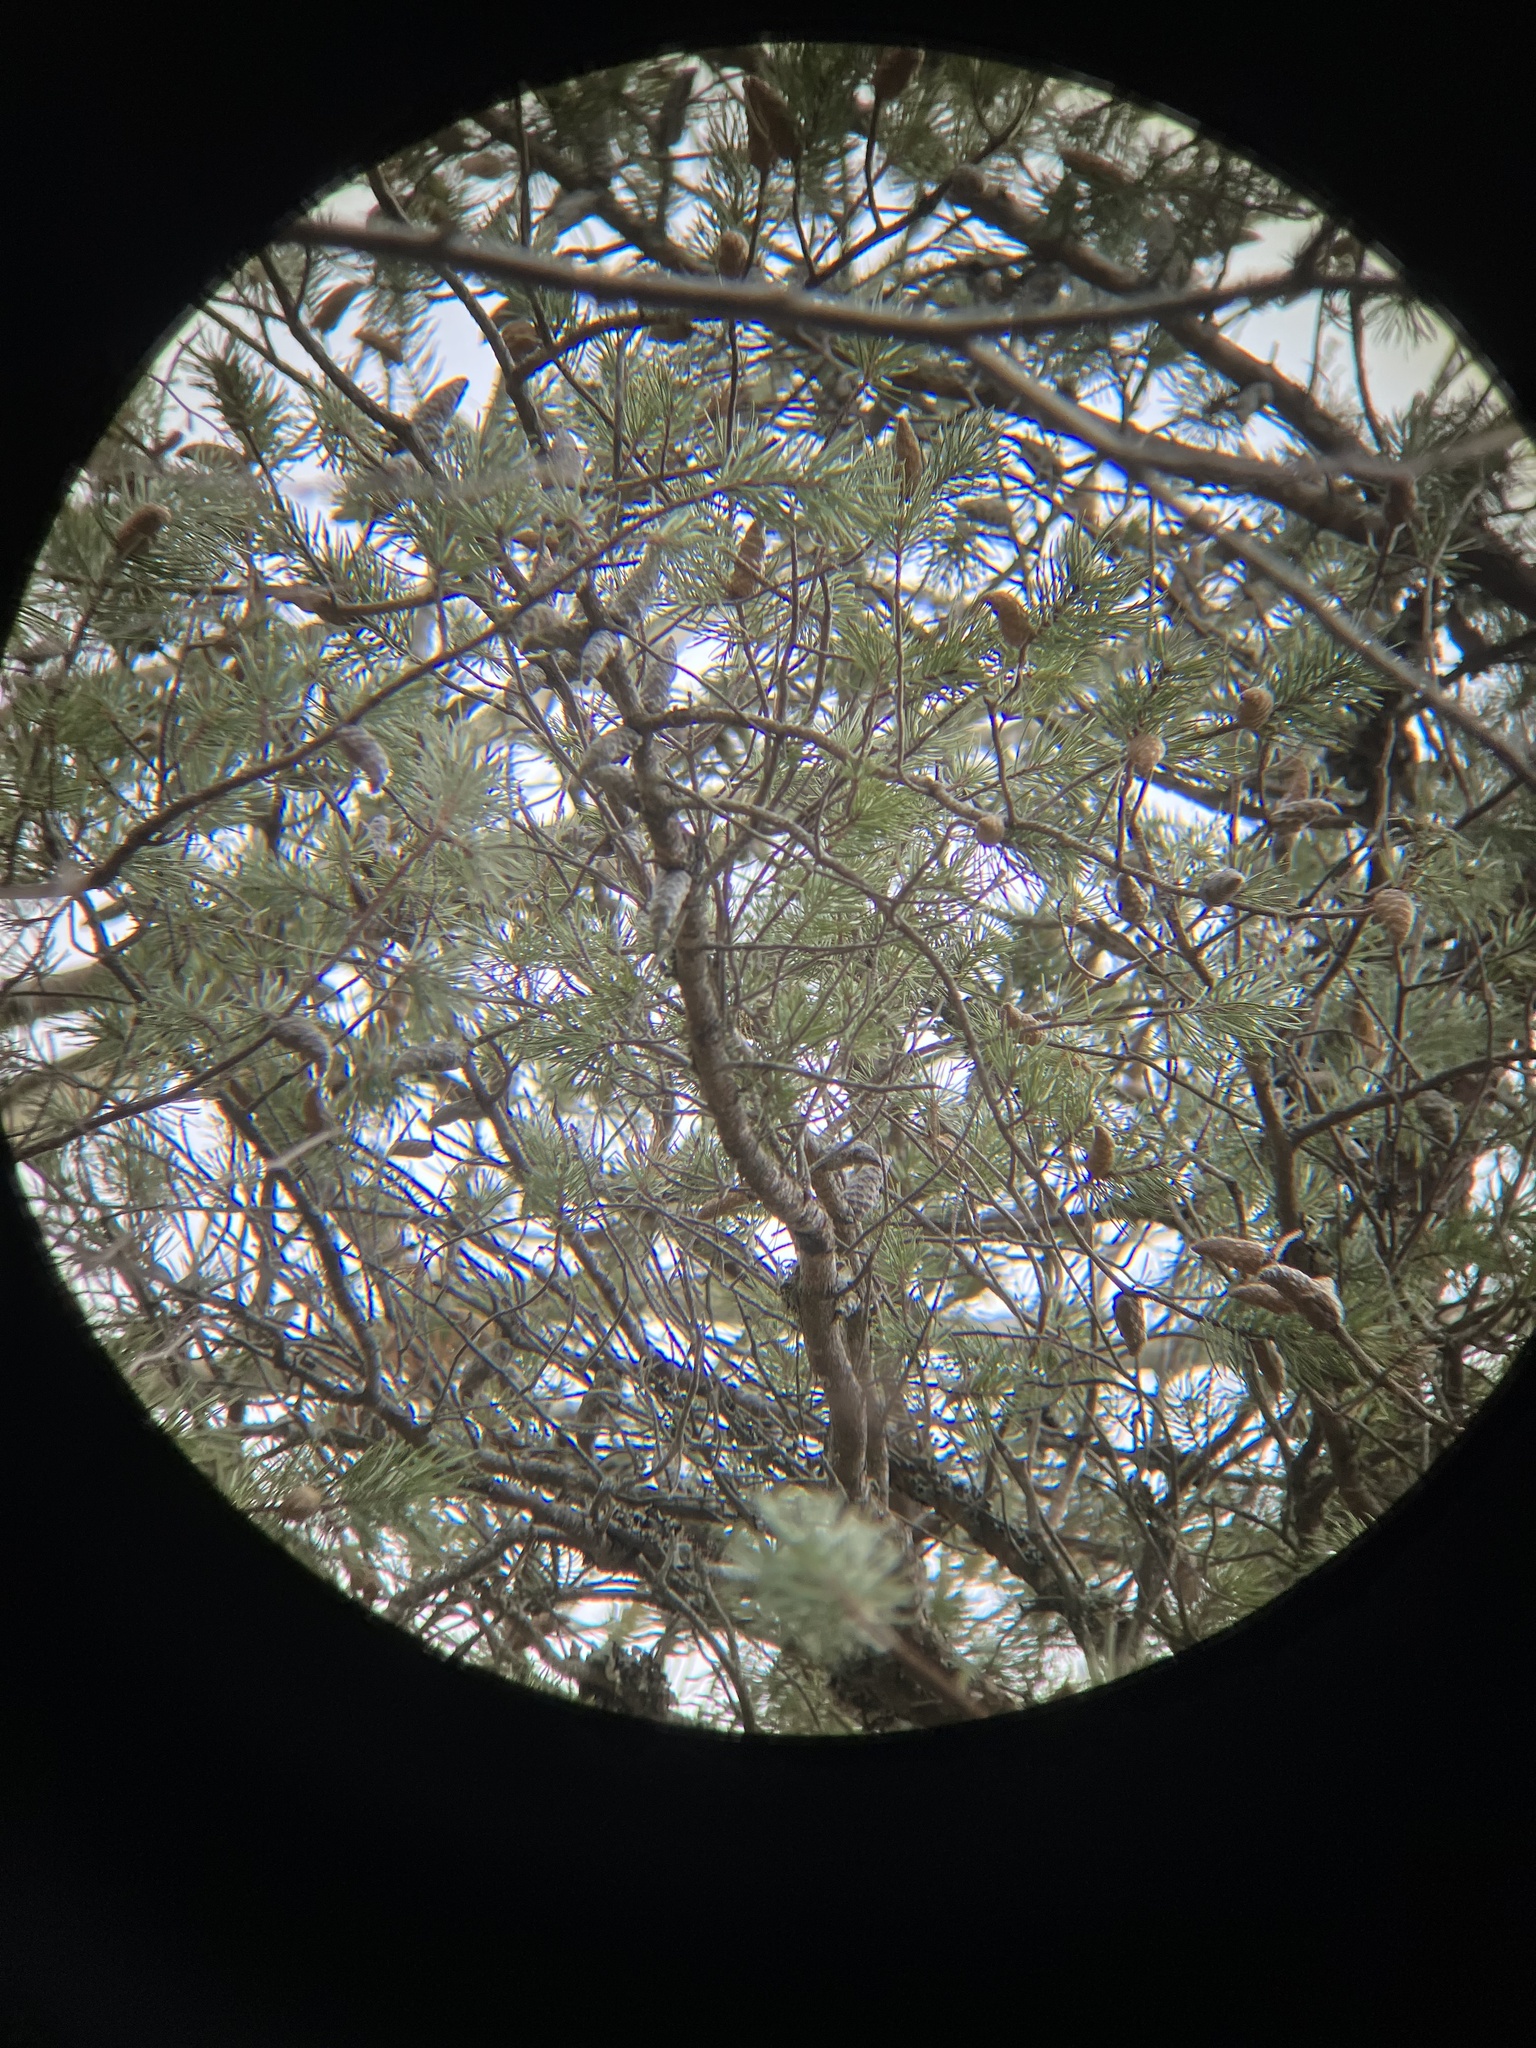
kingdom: Plantae
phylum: Tracheophyta
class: Pinopsida
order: Pinales
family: Pinaceae
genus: Pinus
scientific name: Pinus banksiana
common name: Jack pine
